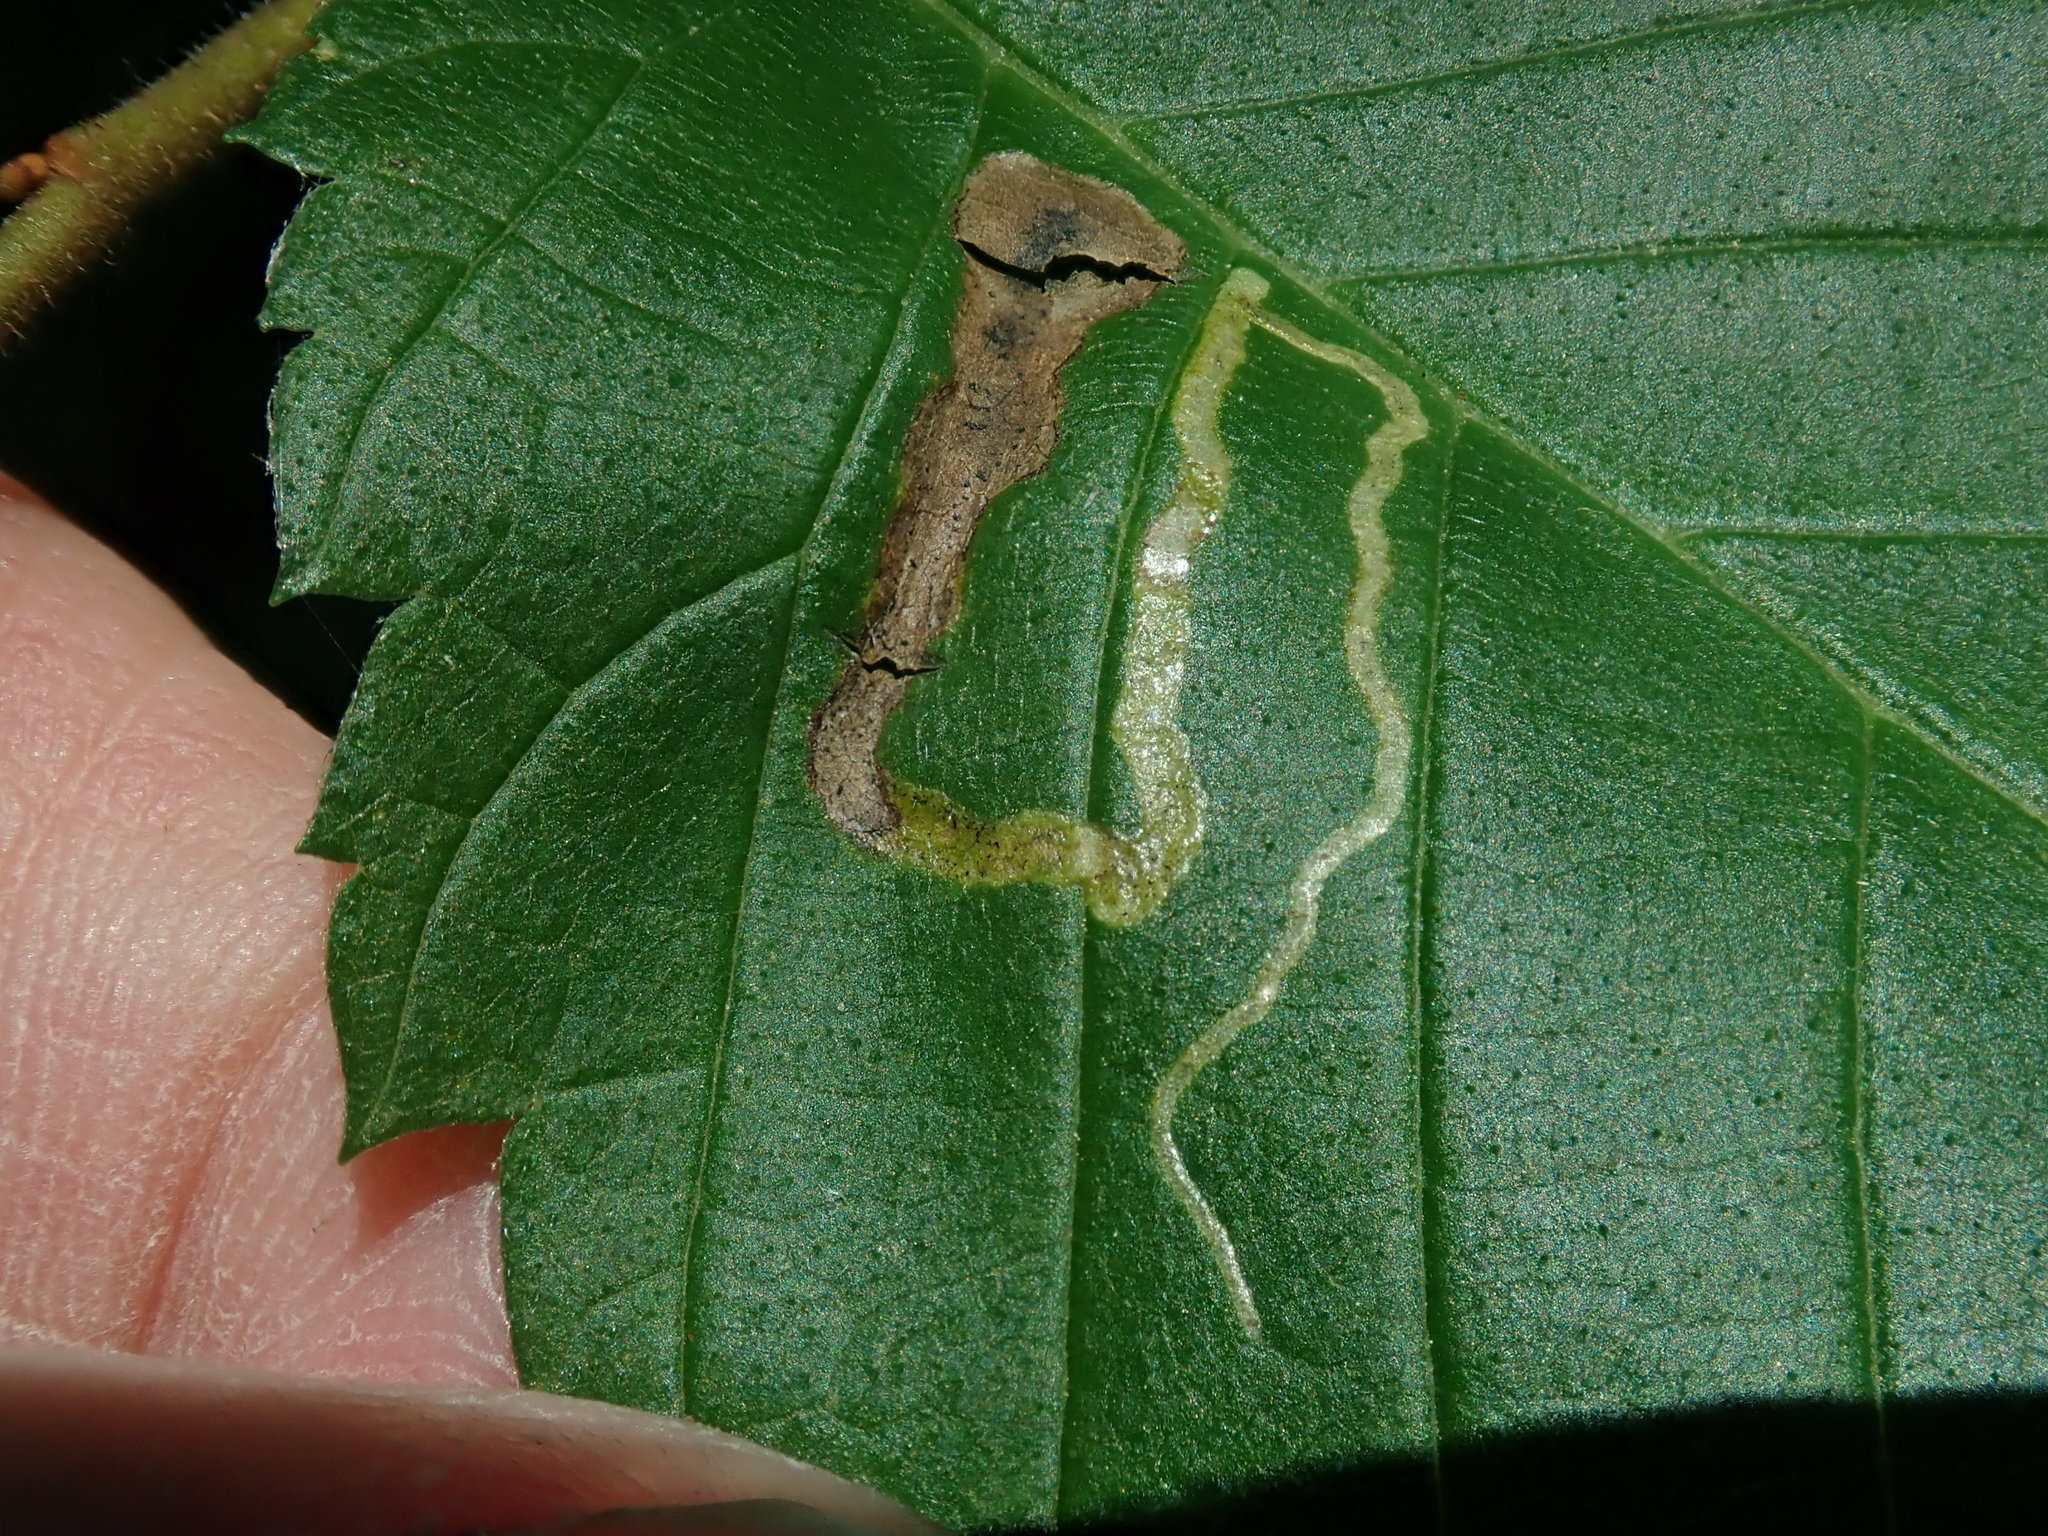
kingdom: Animalia
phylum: Arthropoda
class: Insecta
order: Diptera
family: Agromyzidae
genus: Agromyza
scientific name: Agromyza aristata
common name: Elm agromyzid leafminer
